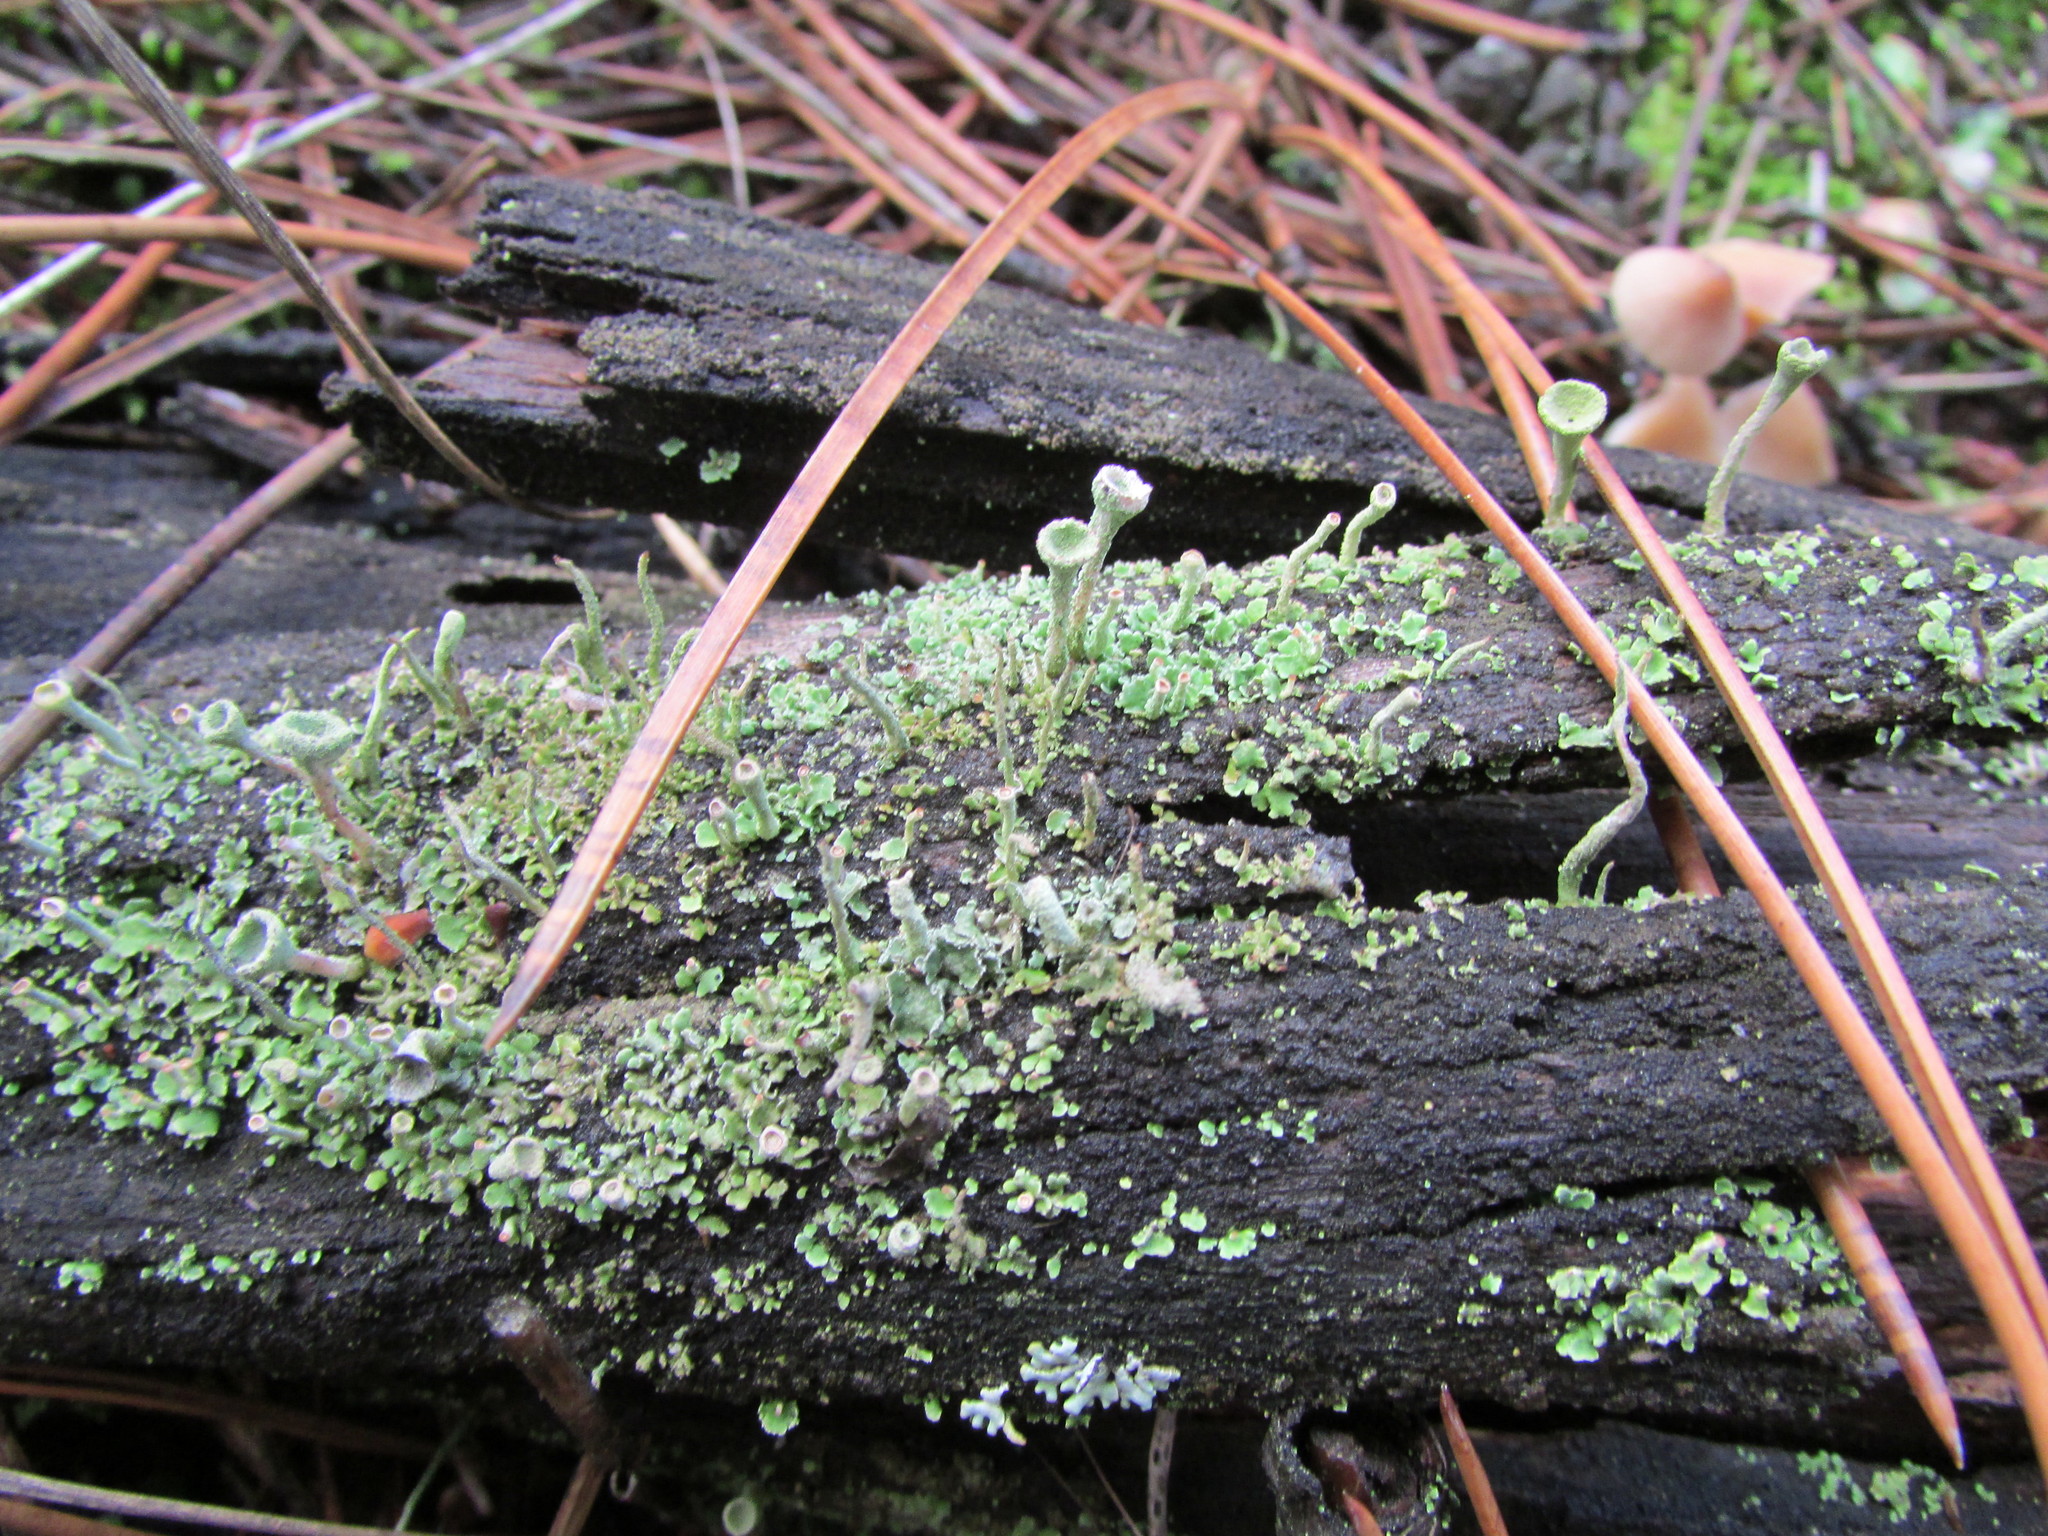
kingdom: Fungi
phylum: Ascomycota
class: Lecanoromycetes
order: Lecanorales
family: Cladoniaceae
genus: Cladonia
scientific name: Cladonia fimbriata
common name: Powdered trumpet lichen
